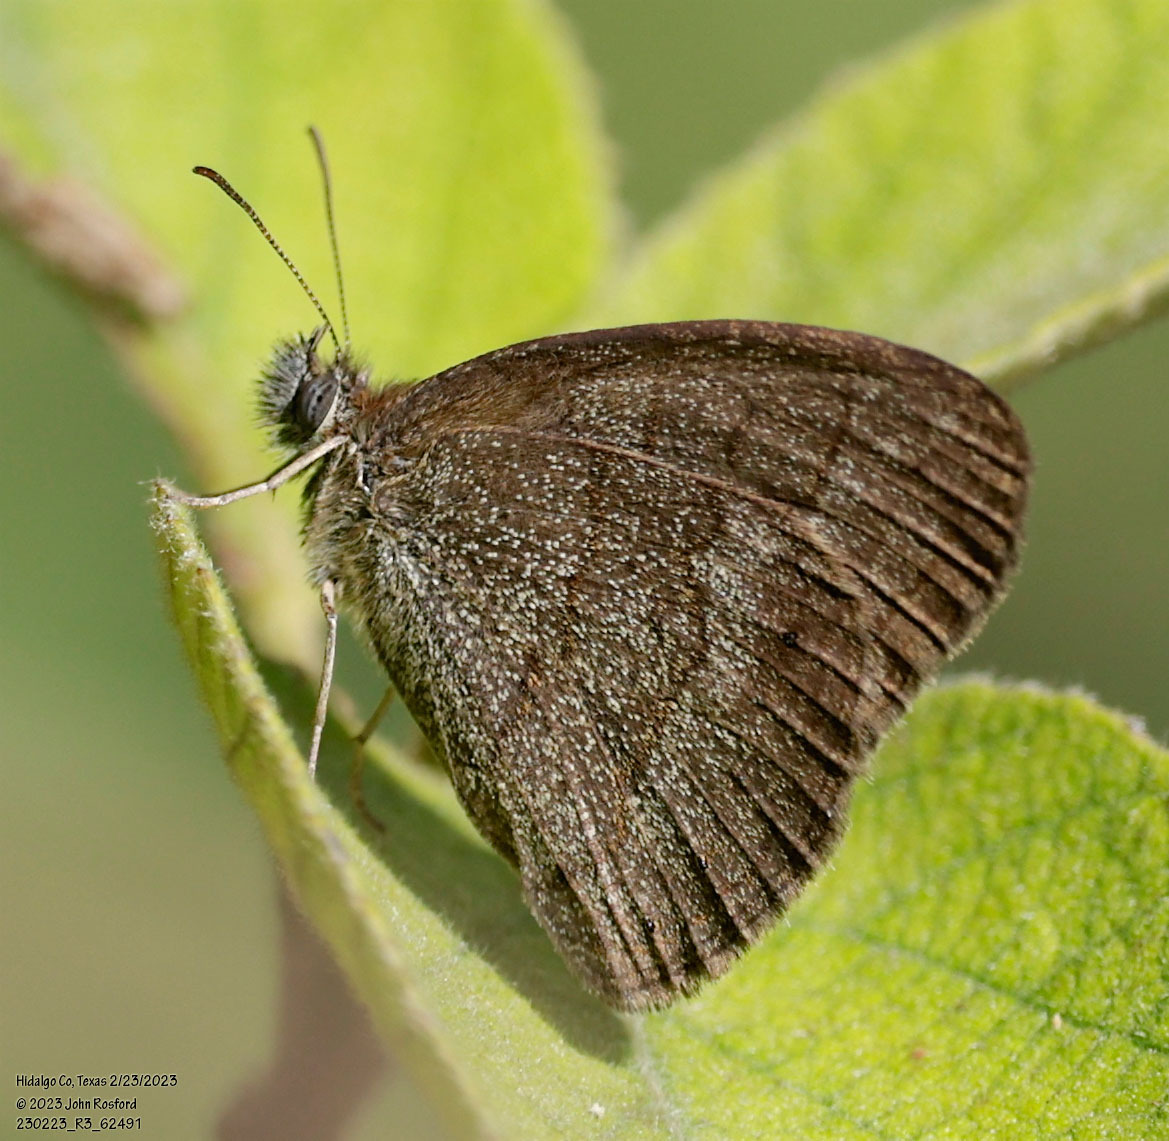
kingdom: Animalia
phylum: Arthropoda
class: Insecta
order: Lepidoptera
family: Nymphalidae
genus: Hermeuptychia
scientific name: Hermeuptychia hermybius
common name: South texas satyr
